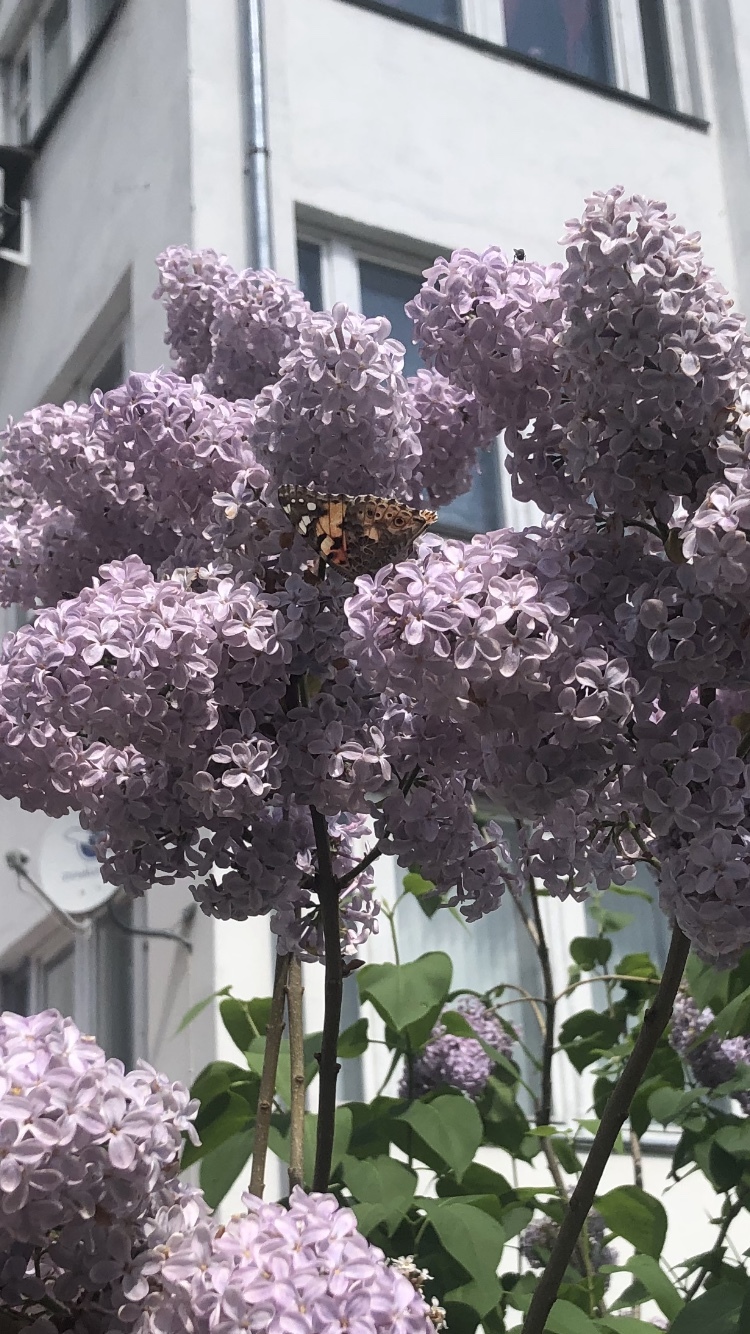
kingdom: Animalia
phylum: Arthropoda
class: Insecta
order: Lepidoptera
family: Nymphalidae
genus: Vanessa
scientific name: Vanessa cardui
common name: Painted lady
